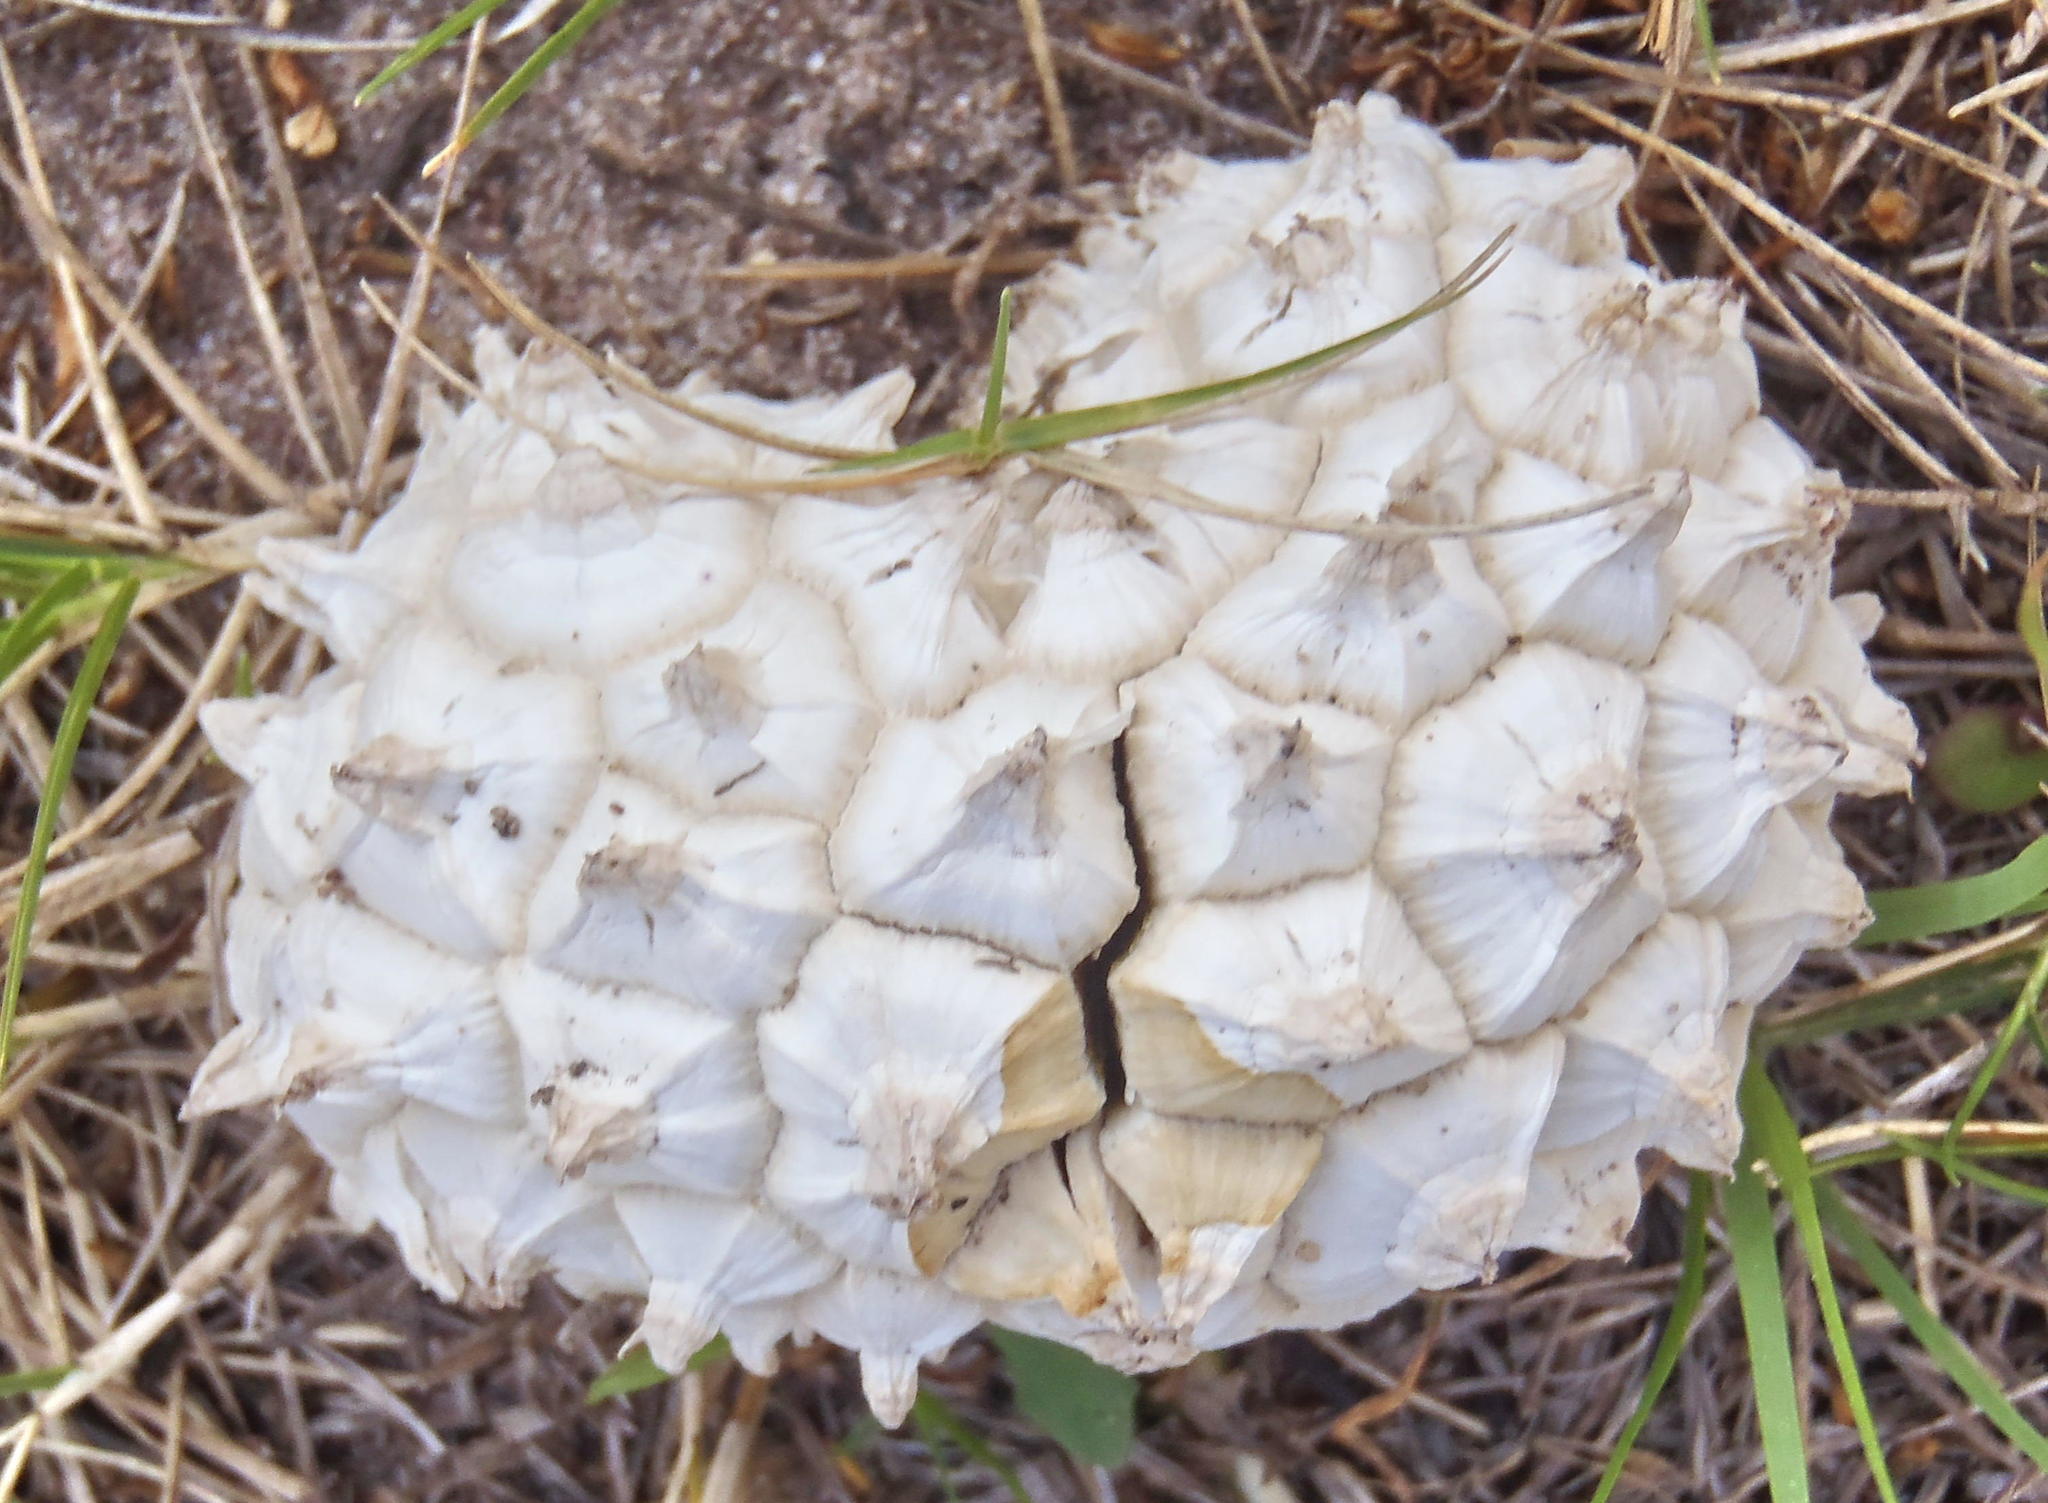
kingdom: Fungi
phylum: Basidiomycota
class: Agaricomycetes
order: Agaricales
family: Agaricaceae
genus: Phellorinia
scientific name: Phellorinia herculeana
